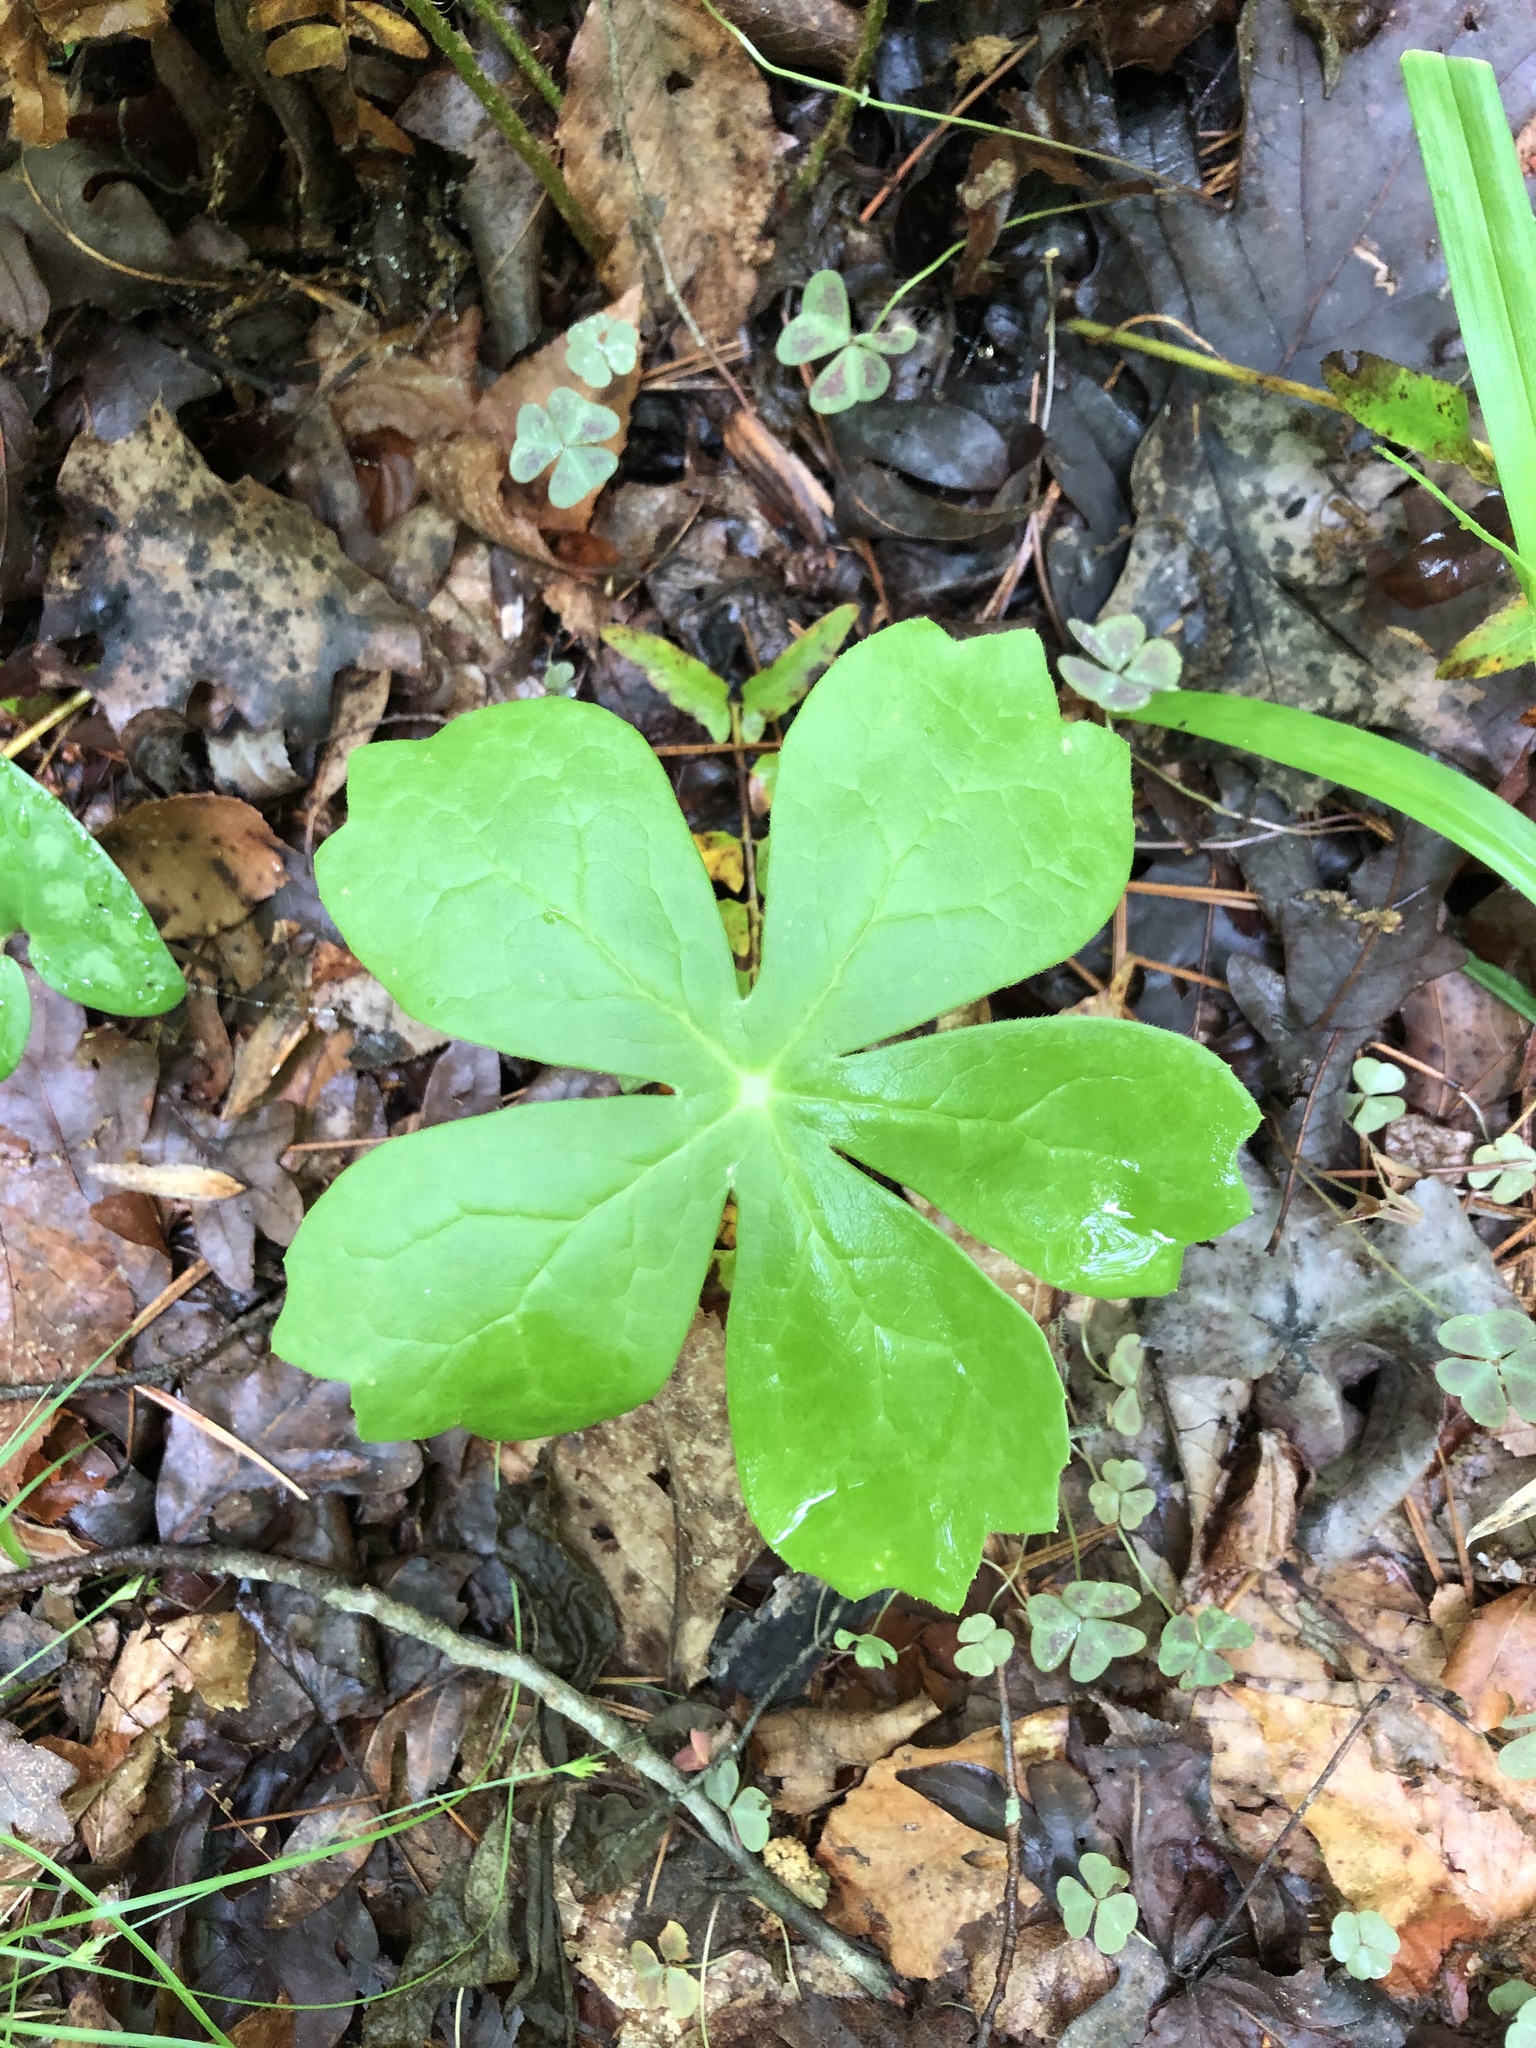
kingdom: Plantae
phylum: Tracheophyta
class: Magnoliopsida
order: Ranunculales
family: Berberidaceae
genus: Podophyllum
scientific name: Podophyllum peltatum
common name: Wild mandrake
